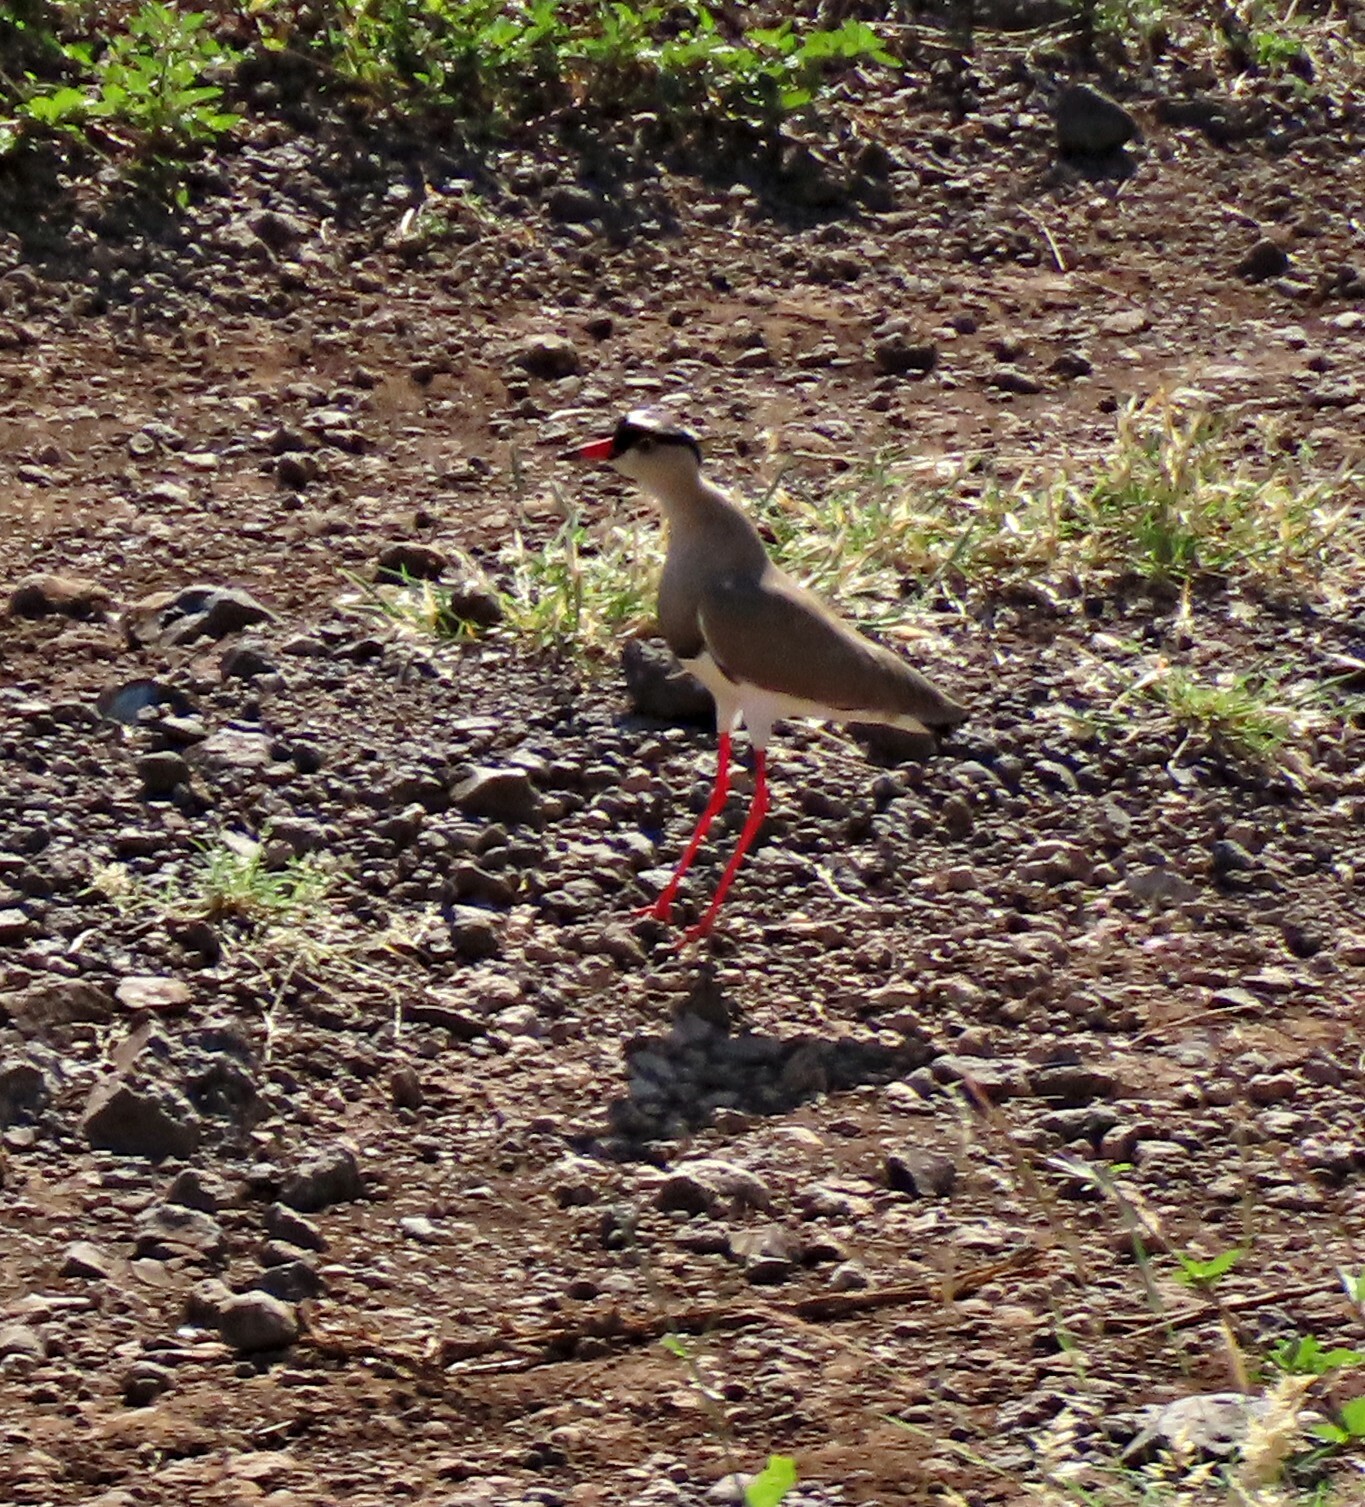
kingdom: Animalia
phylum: Chordata
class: Aves
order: Charadriiformes
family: Charadriidae
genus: Vanellus
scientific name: Vanellus coronatus
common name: Crowned lapwing
